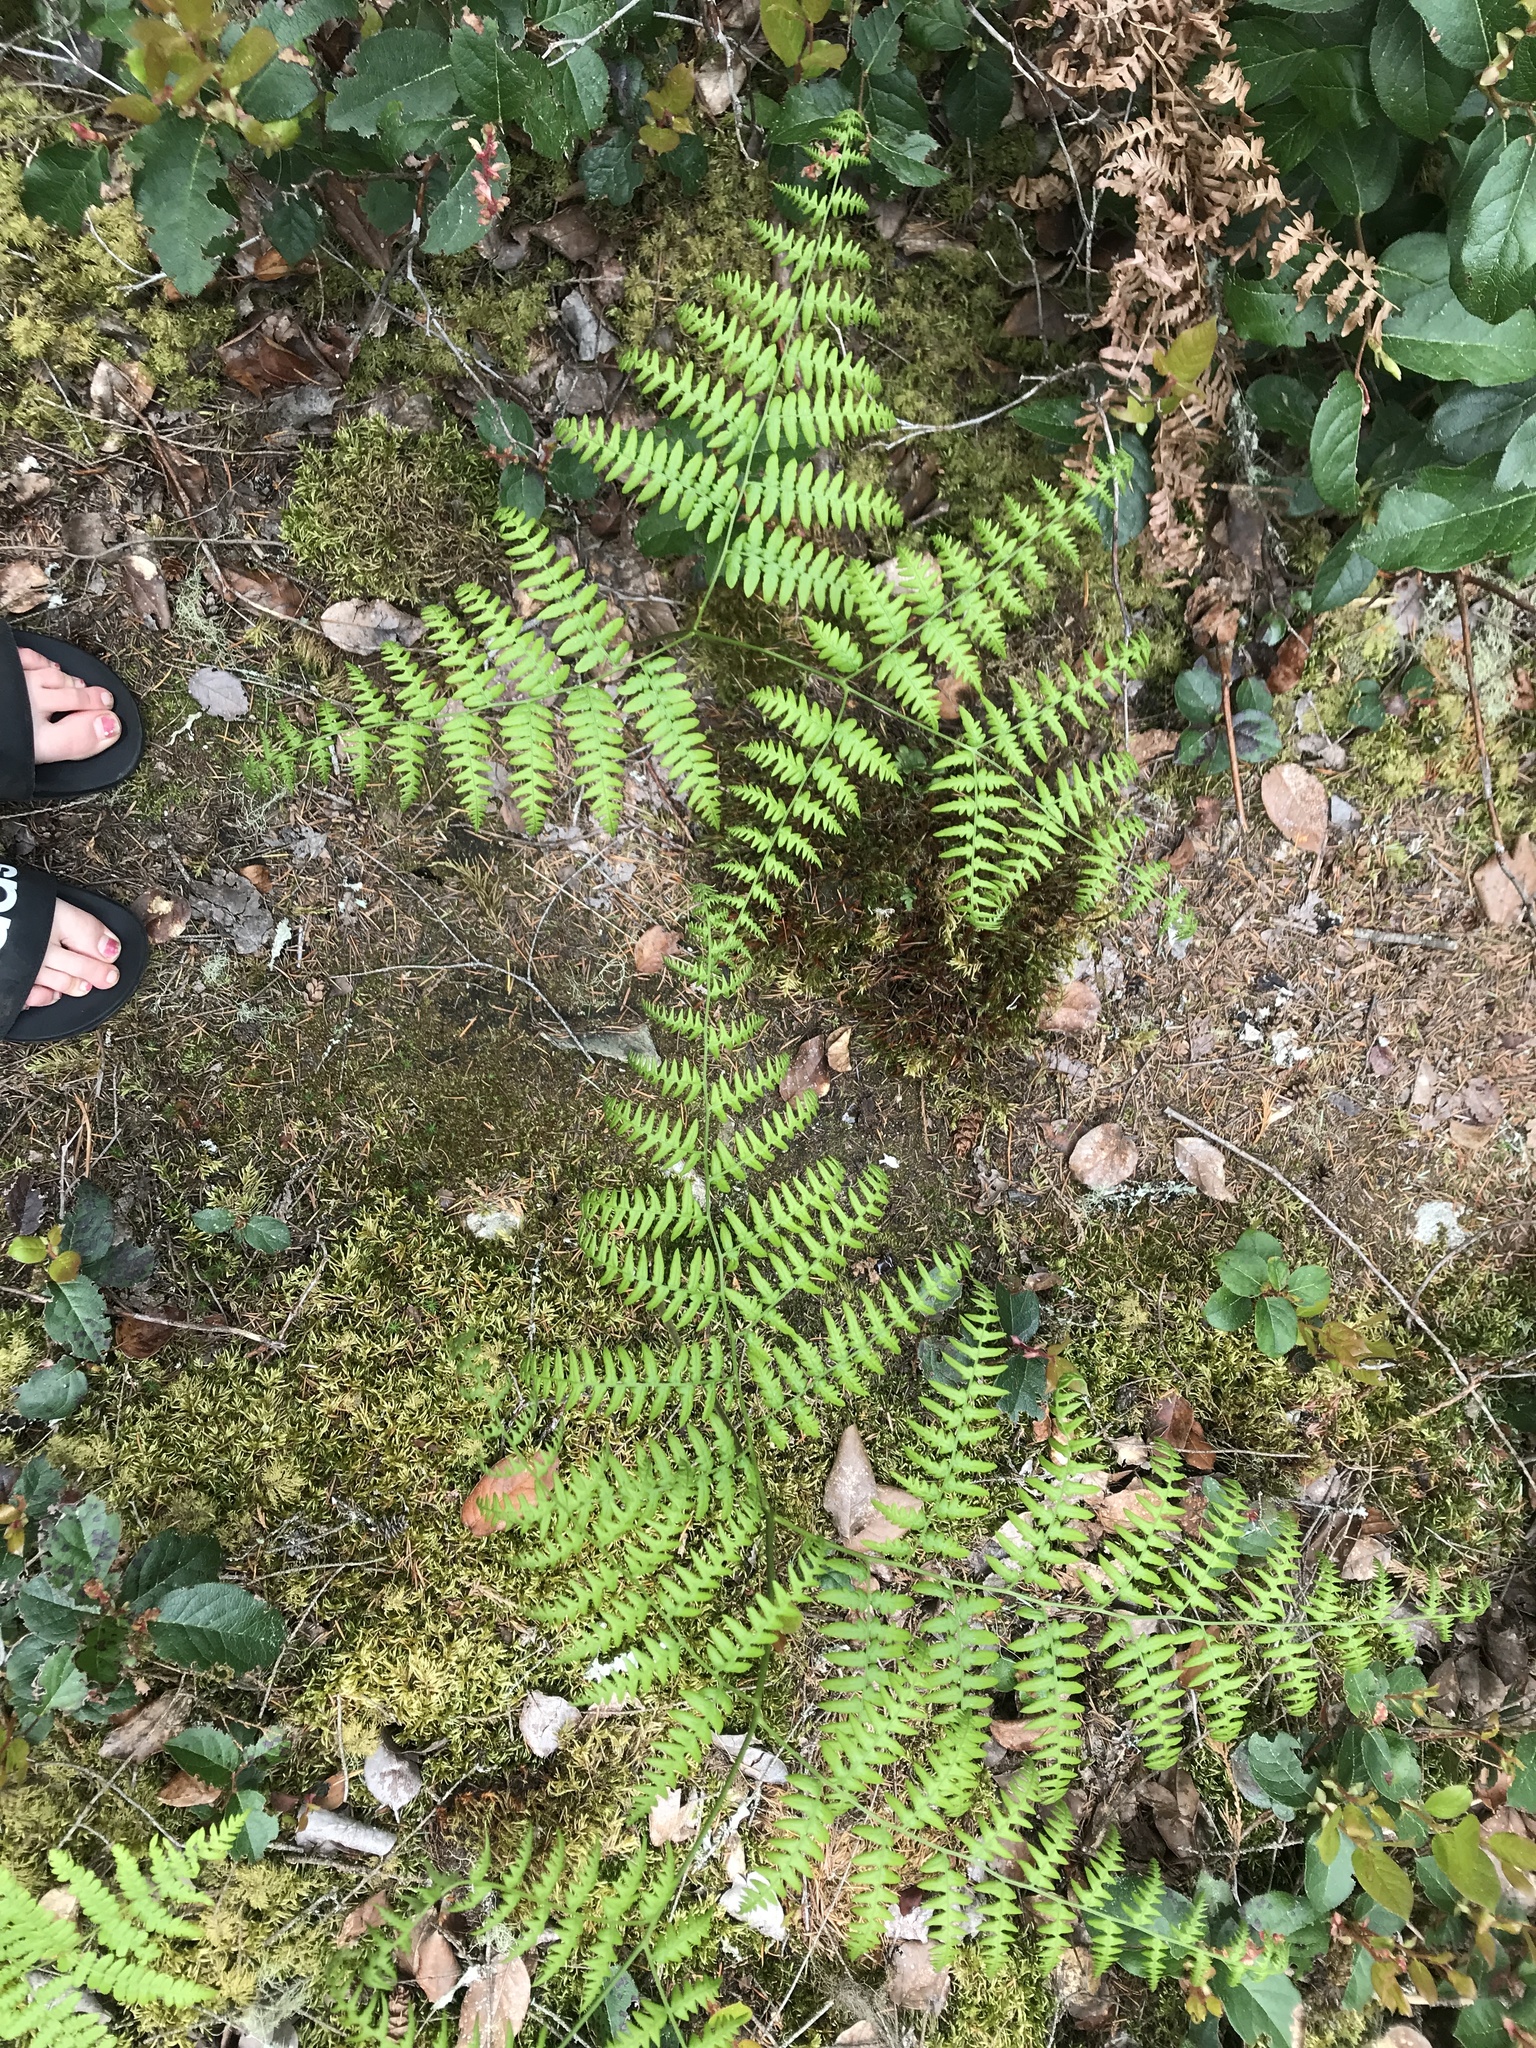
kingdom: Plantae
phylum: Tracheophyta
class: Polypodiopsida
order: Polypodiales
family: Dennstaedtiaceae
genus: Pteridium
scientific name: Pteridium aquilinum
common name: Bracken
